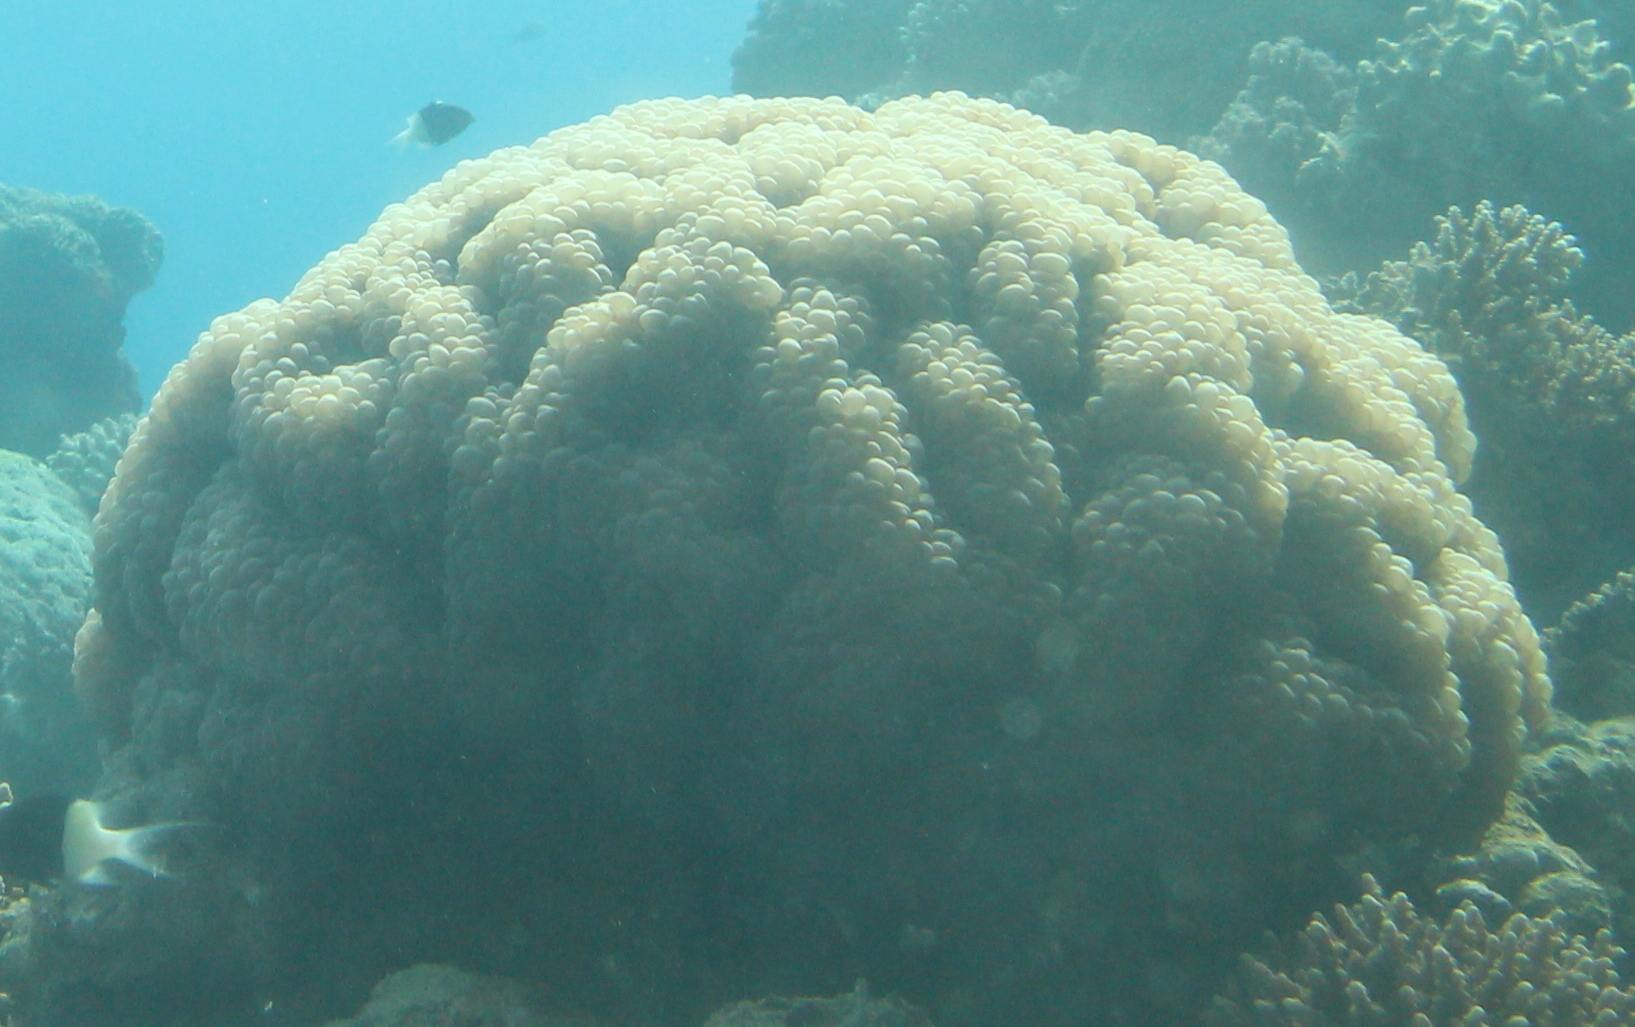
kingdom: Animalia
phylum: Cnidaria
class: Anthozoa
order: Scleractinia
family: Plerogyridae
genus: Plerogyra
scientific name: Plerogyra sinuosa
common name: Bubble coral
